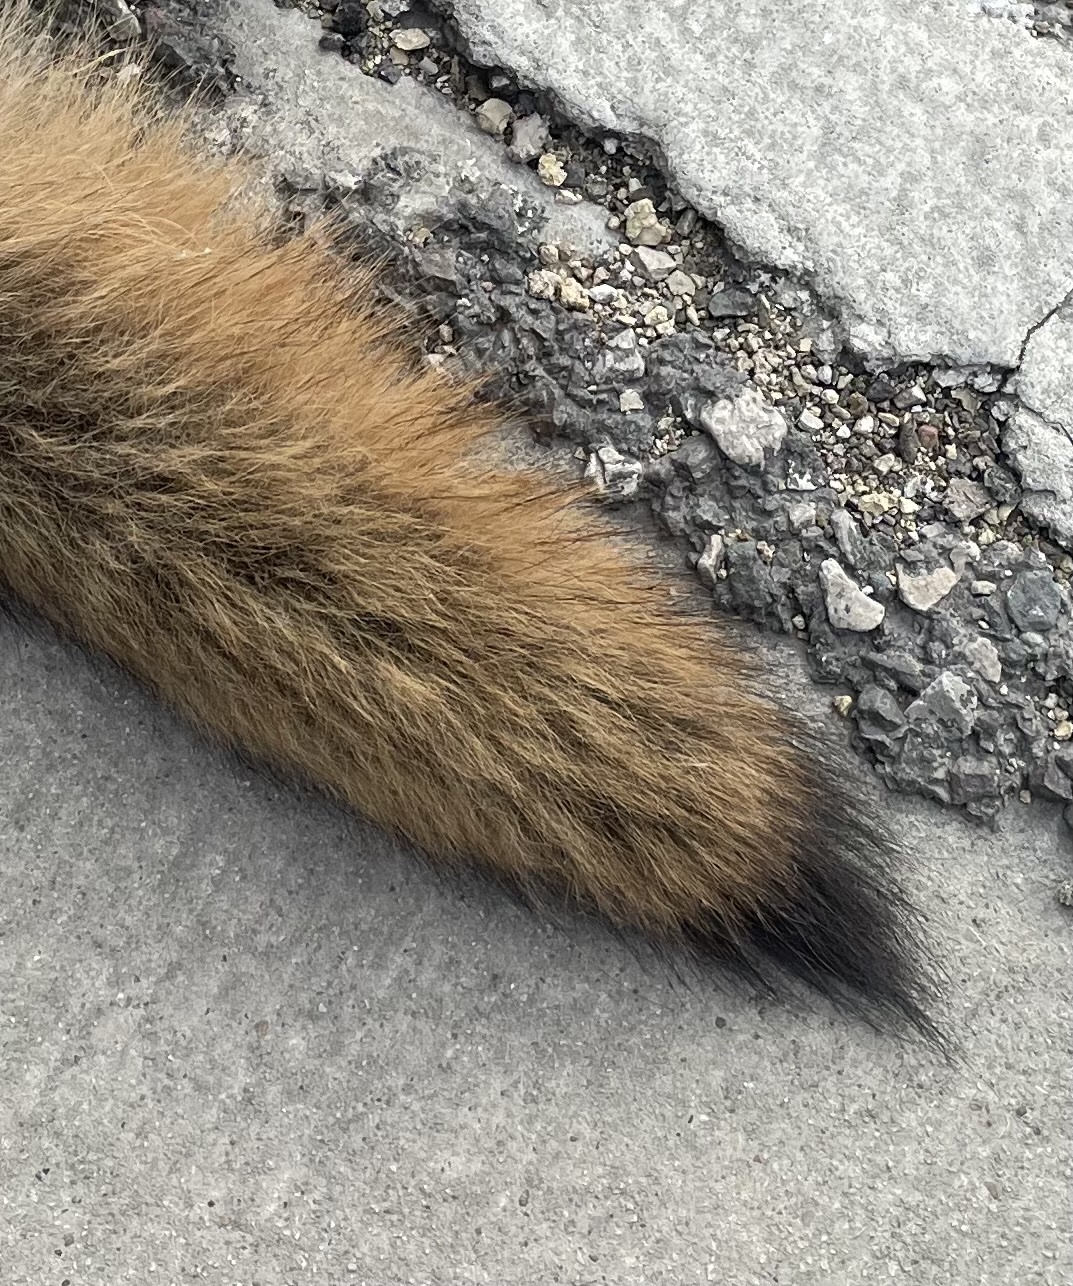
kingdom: Animalia
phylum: Chordata
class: Mammalia
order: Carnivora
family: Canidae
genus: Canis
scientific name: Canis latrans
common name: Coyote
